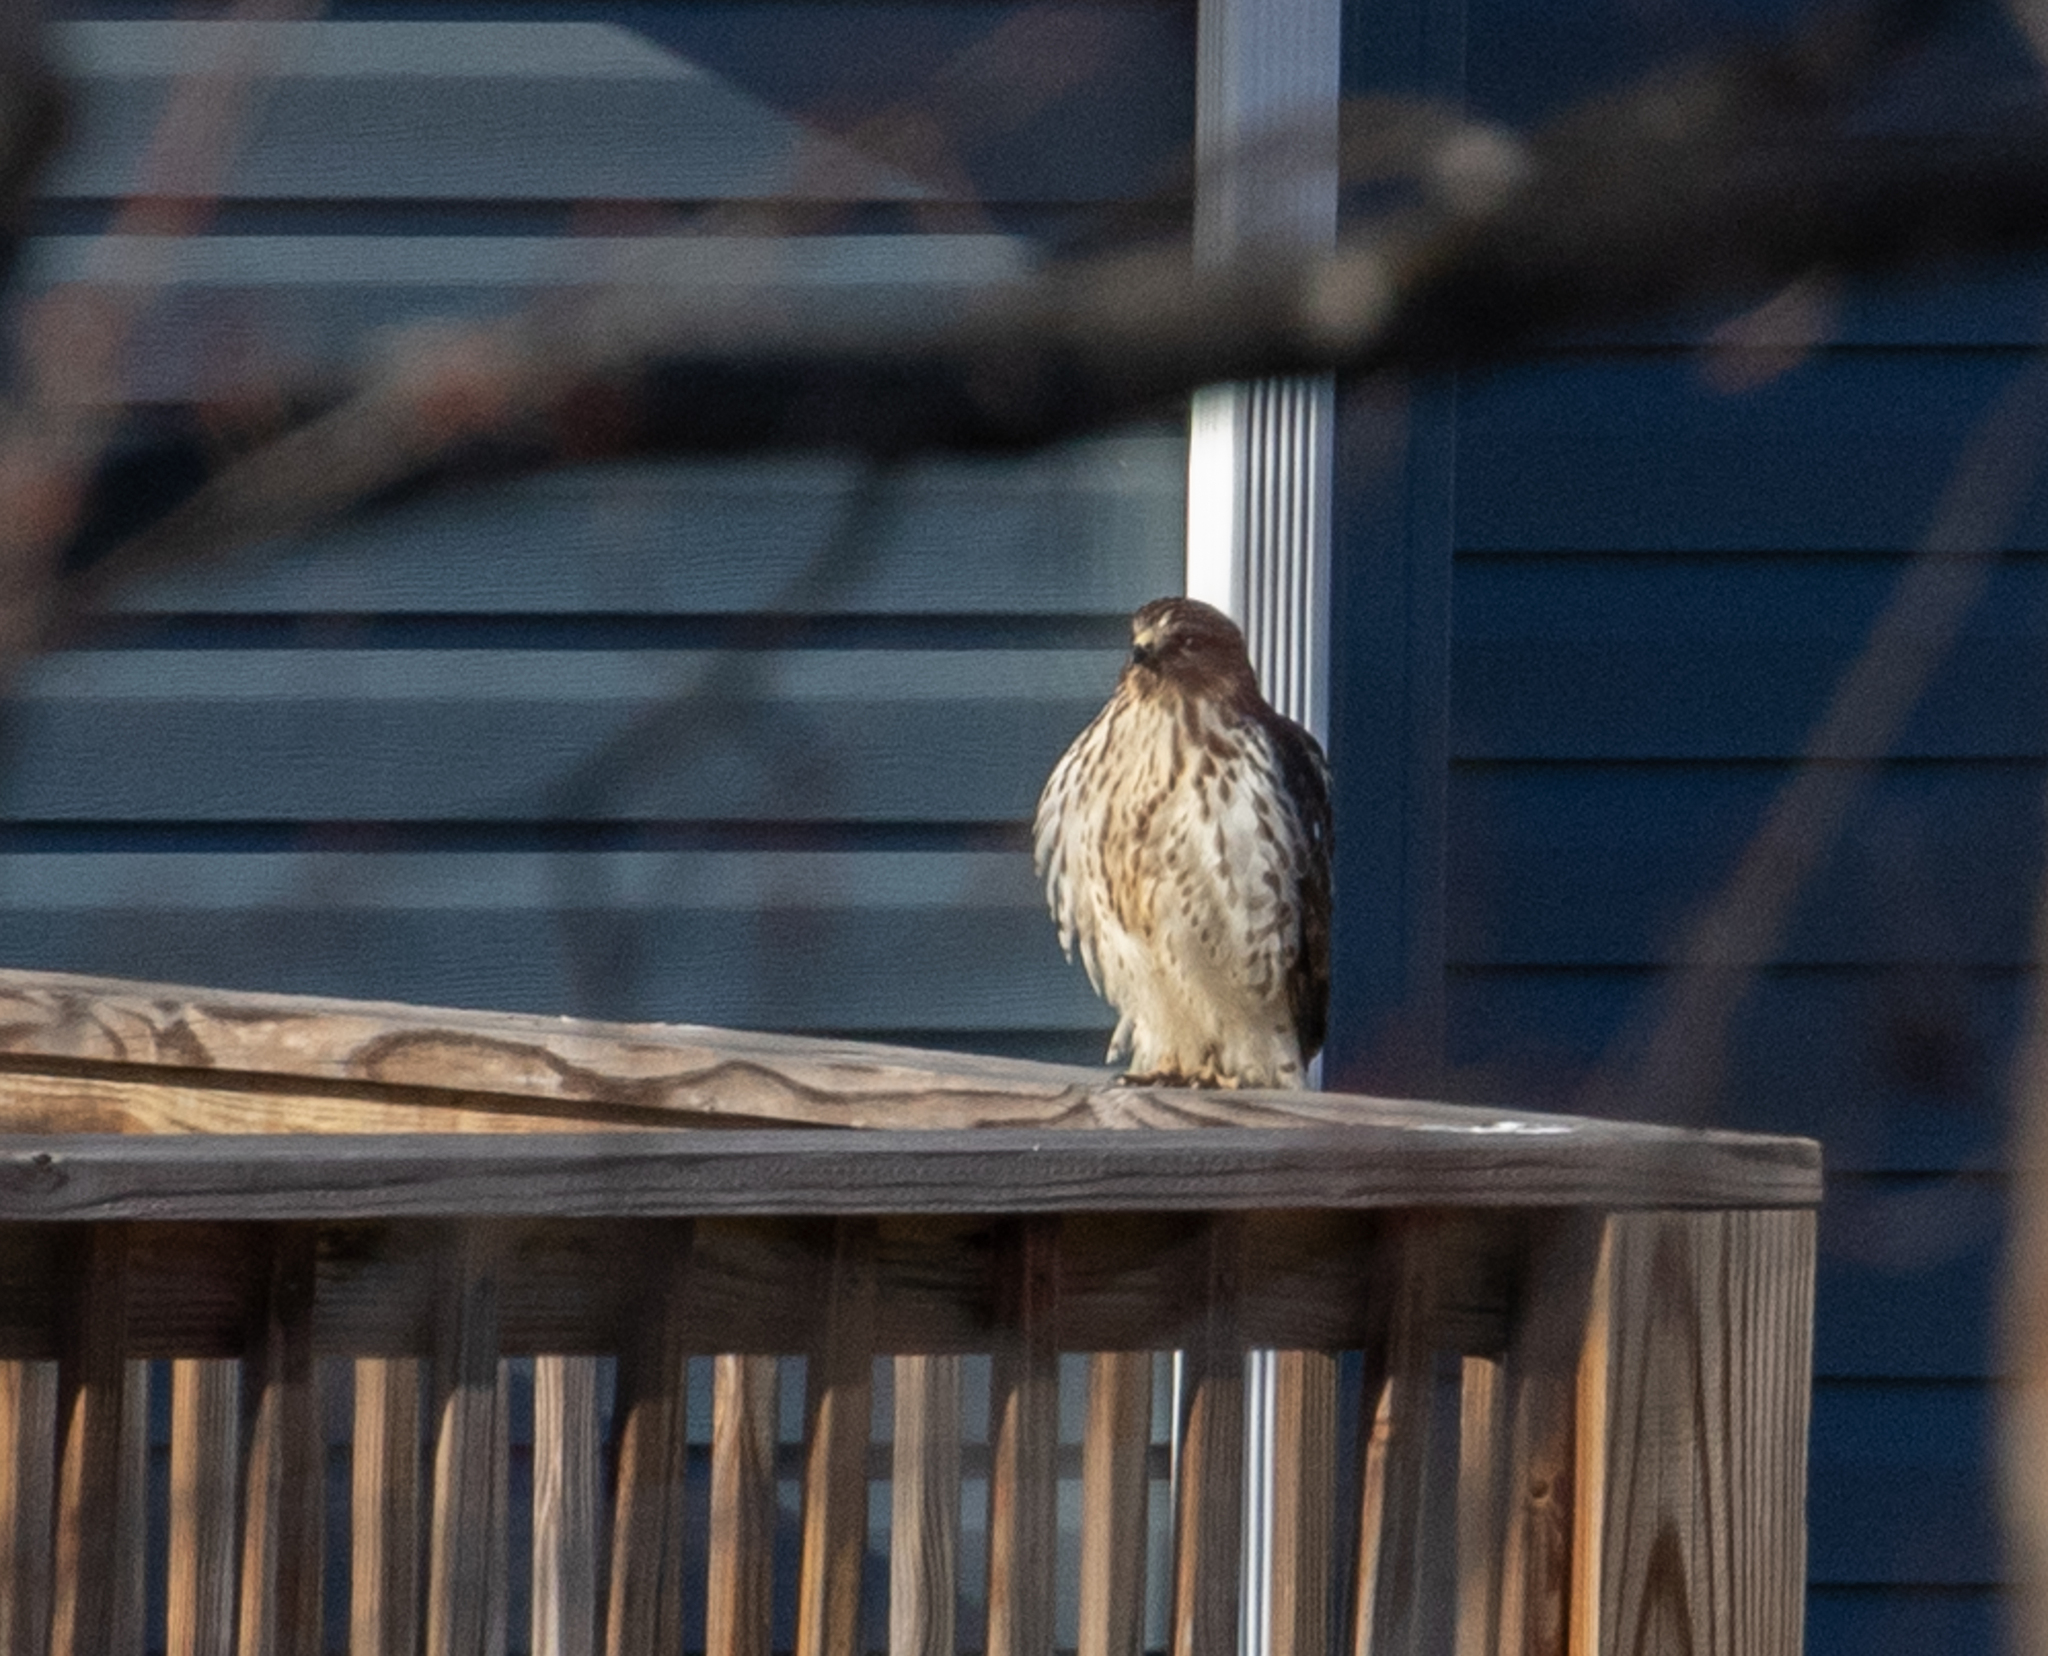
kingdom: Animalia
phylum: Chordata
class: Aves
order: Accipitriformes
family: Accipitridae
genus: Buteo
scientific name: Buteo lineatus
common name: Red-shouldered hawk
